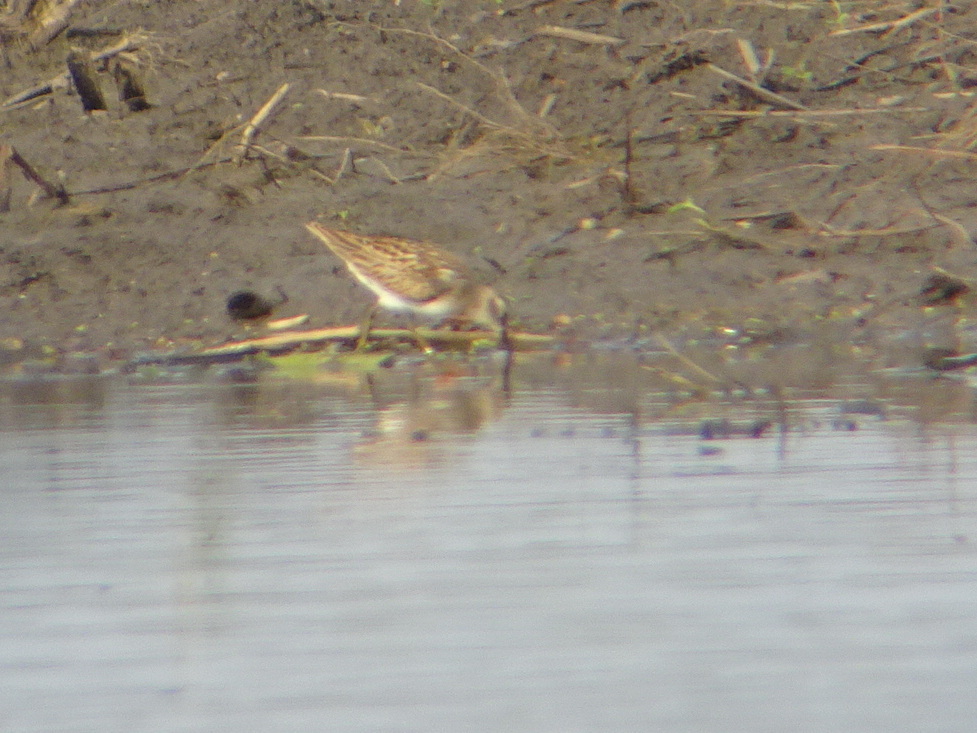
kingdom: Animalia
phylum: Chordata
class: Aves
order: Charadriiformes
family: Scolopacidae
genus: Calidris
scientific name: Calidris minutilla
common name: Least sandpiper
